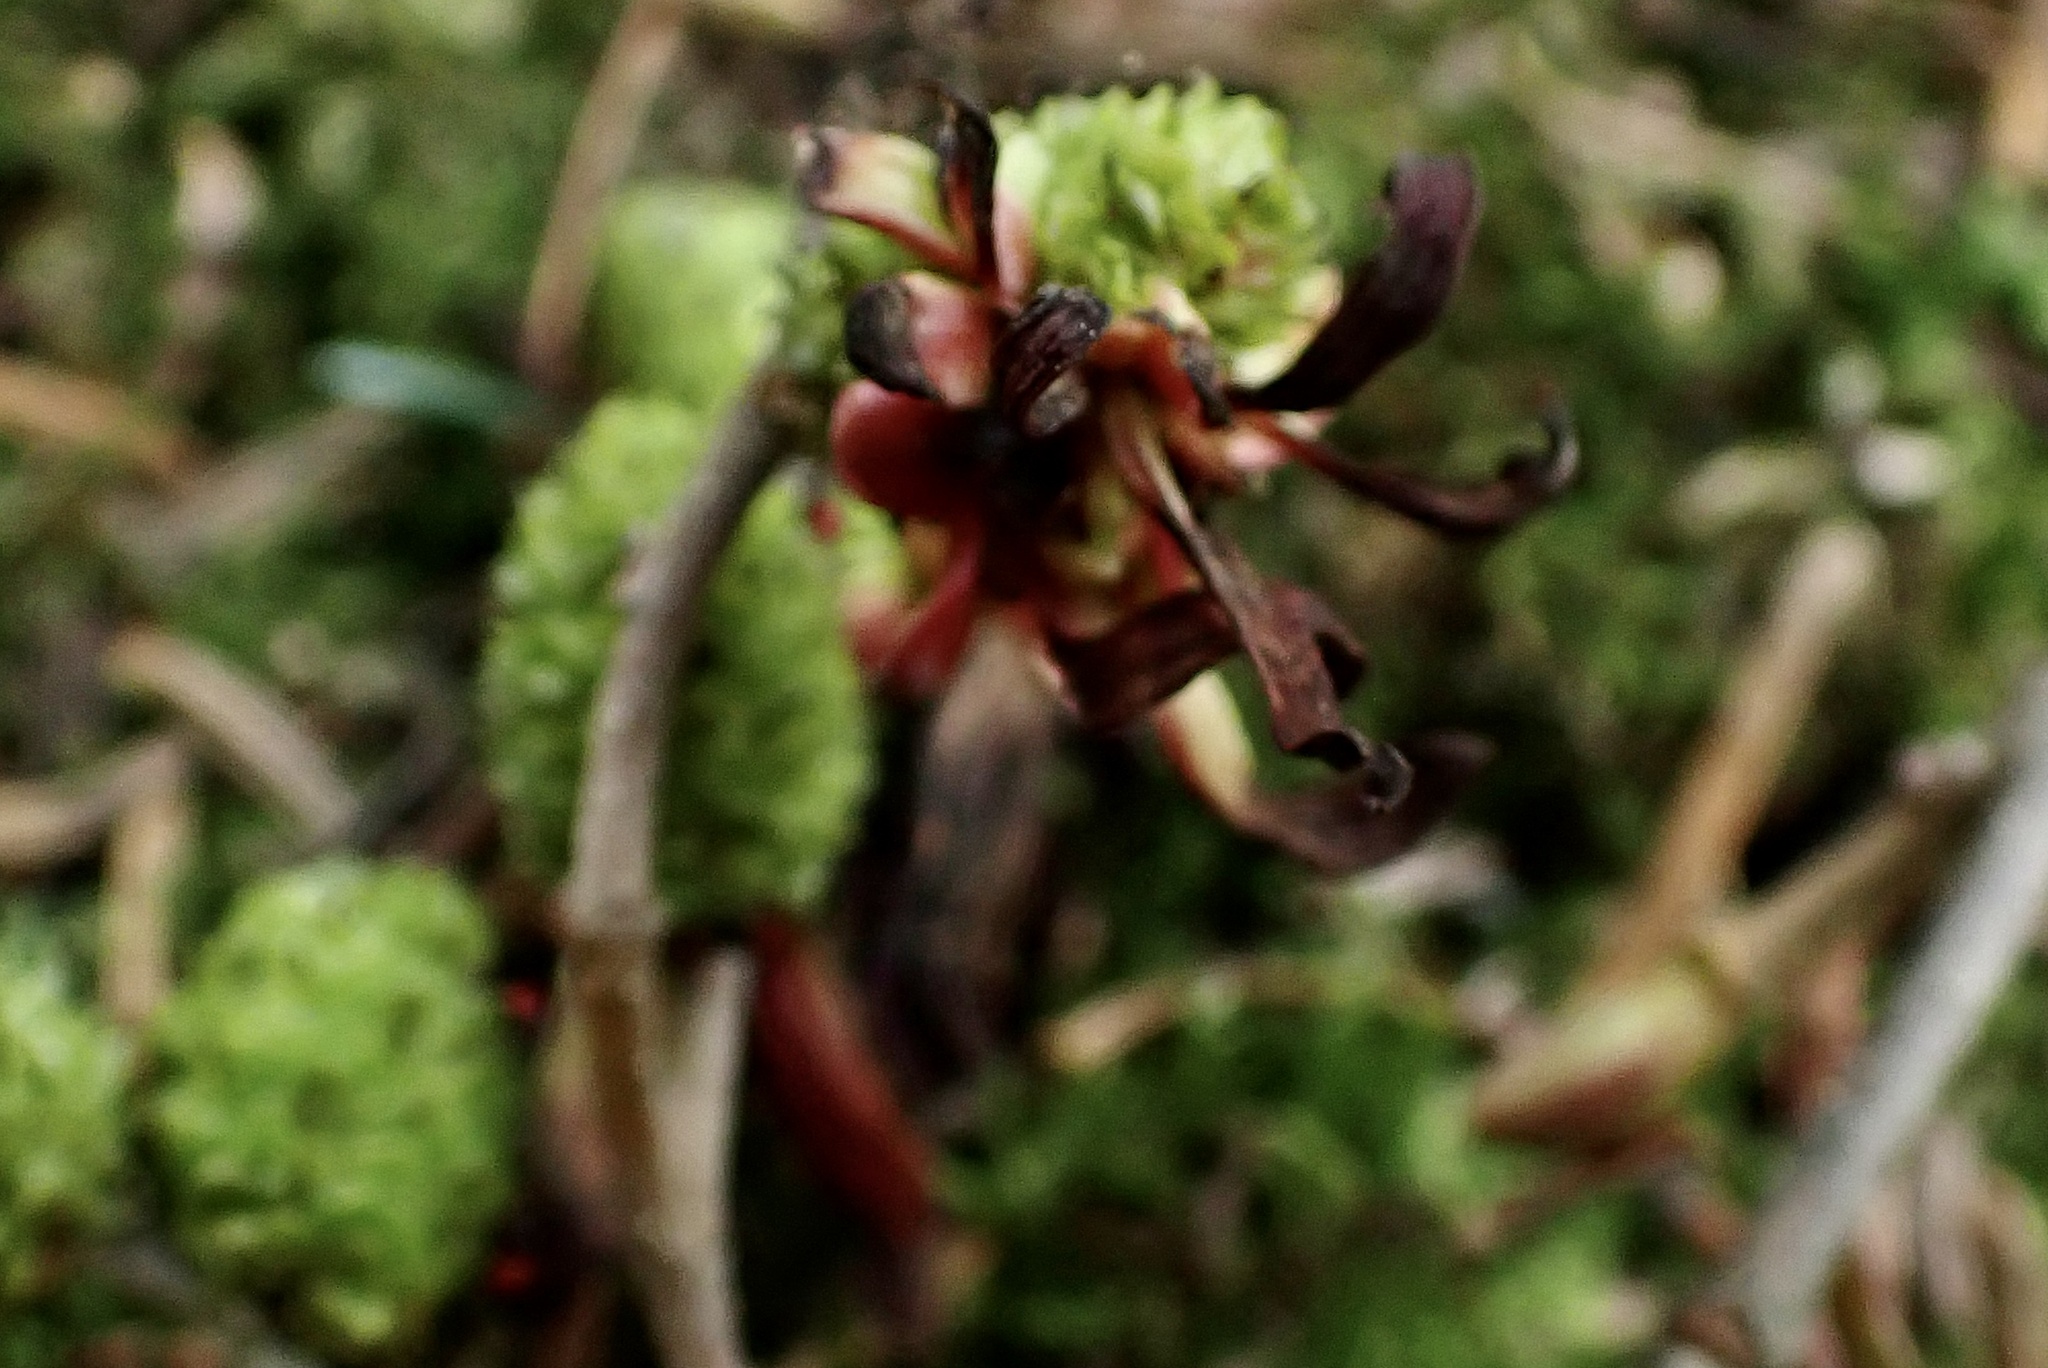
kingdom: Fungi
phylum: Ascomycota
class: Taphrinomycetes
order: Taphrinales
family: Taphrinaceae
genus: Taphrina
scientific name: Taphrina robinsoniana
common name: Eastern american alder tongue gall fungus
